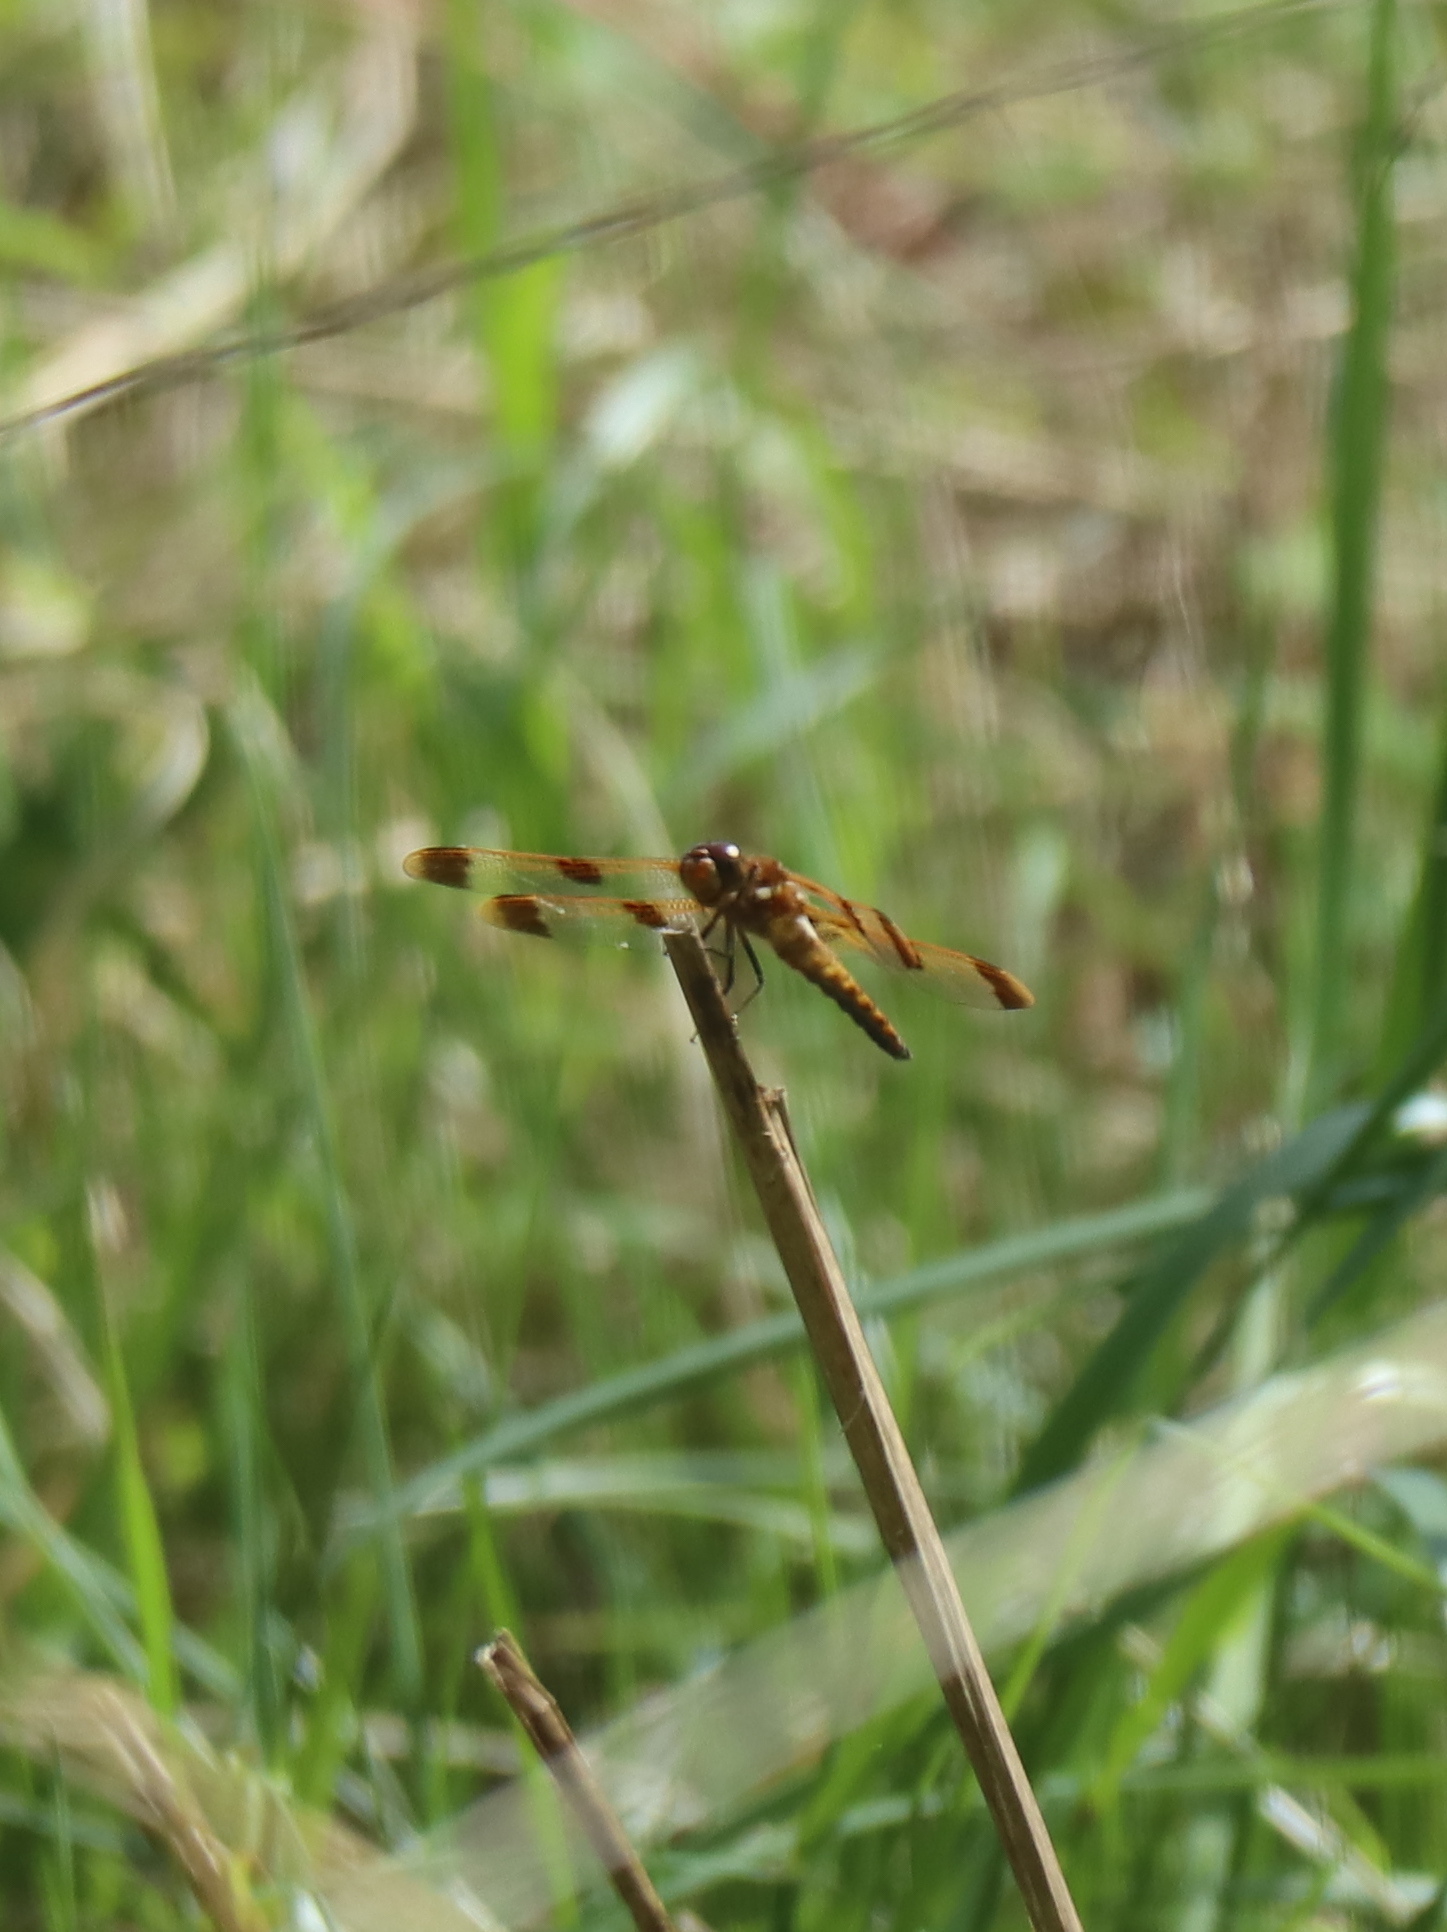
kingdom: Animalia
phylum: Arthropoda
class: Insecta
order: Odonata
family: Libellulidae
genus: Libellula
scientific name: Libellula semifasciata
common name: Painted skimmer
